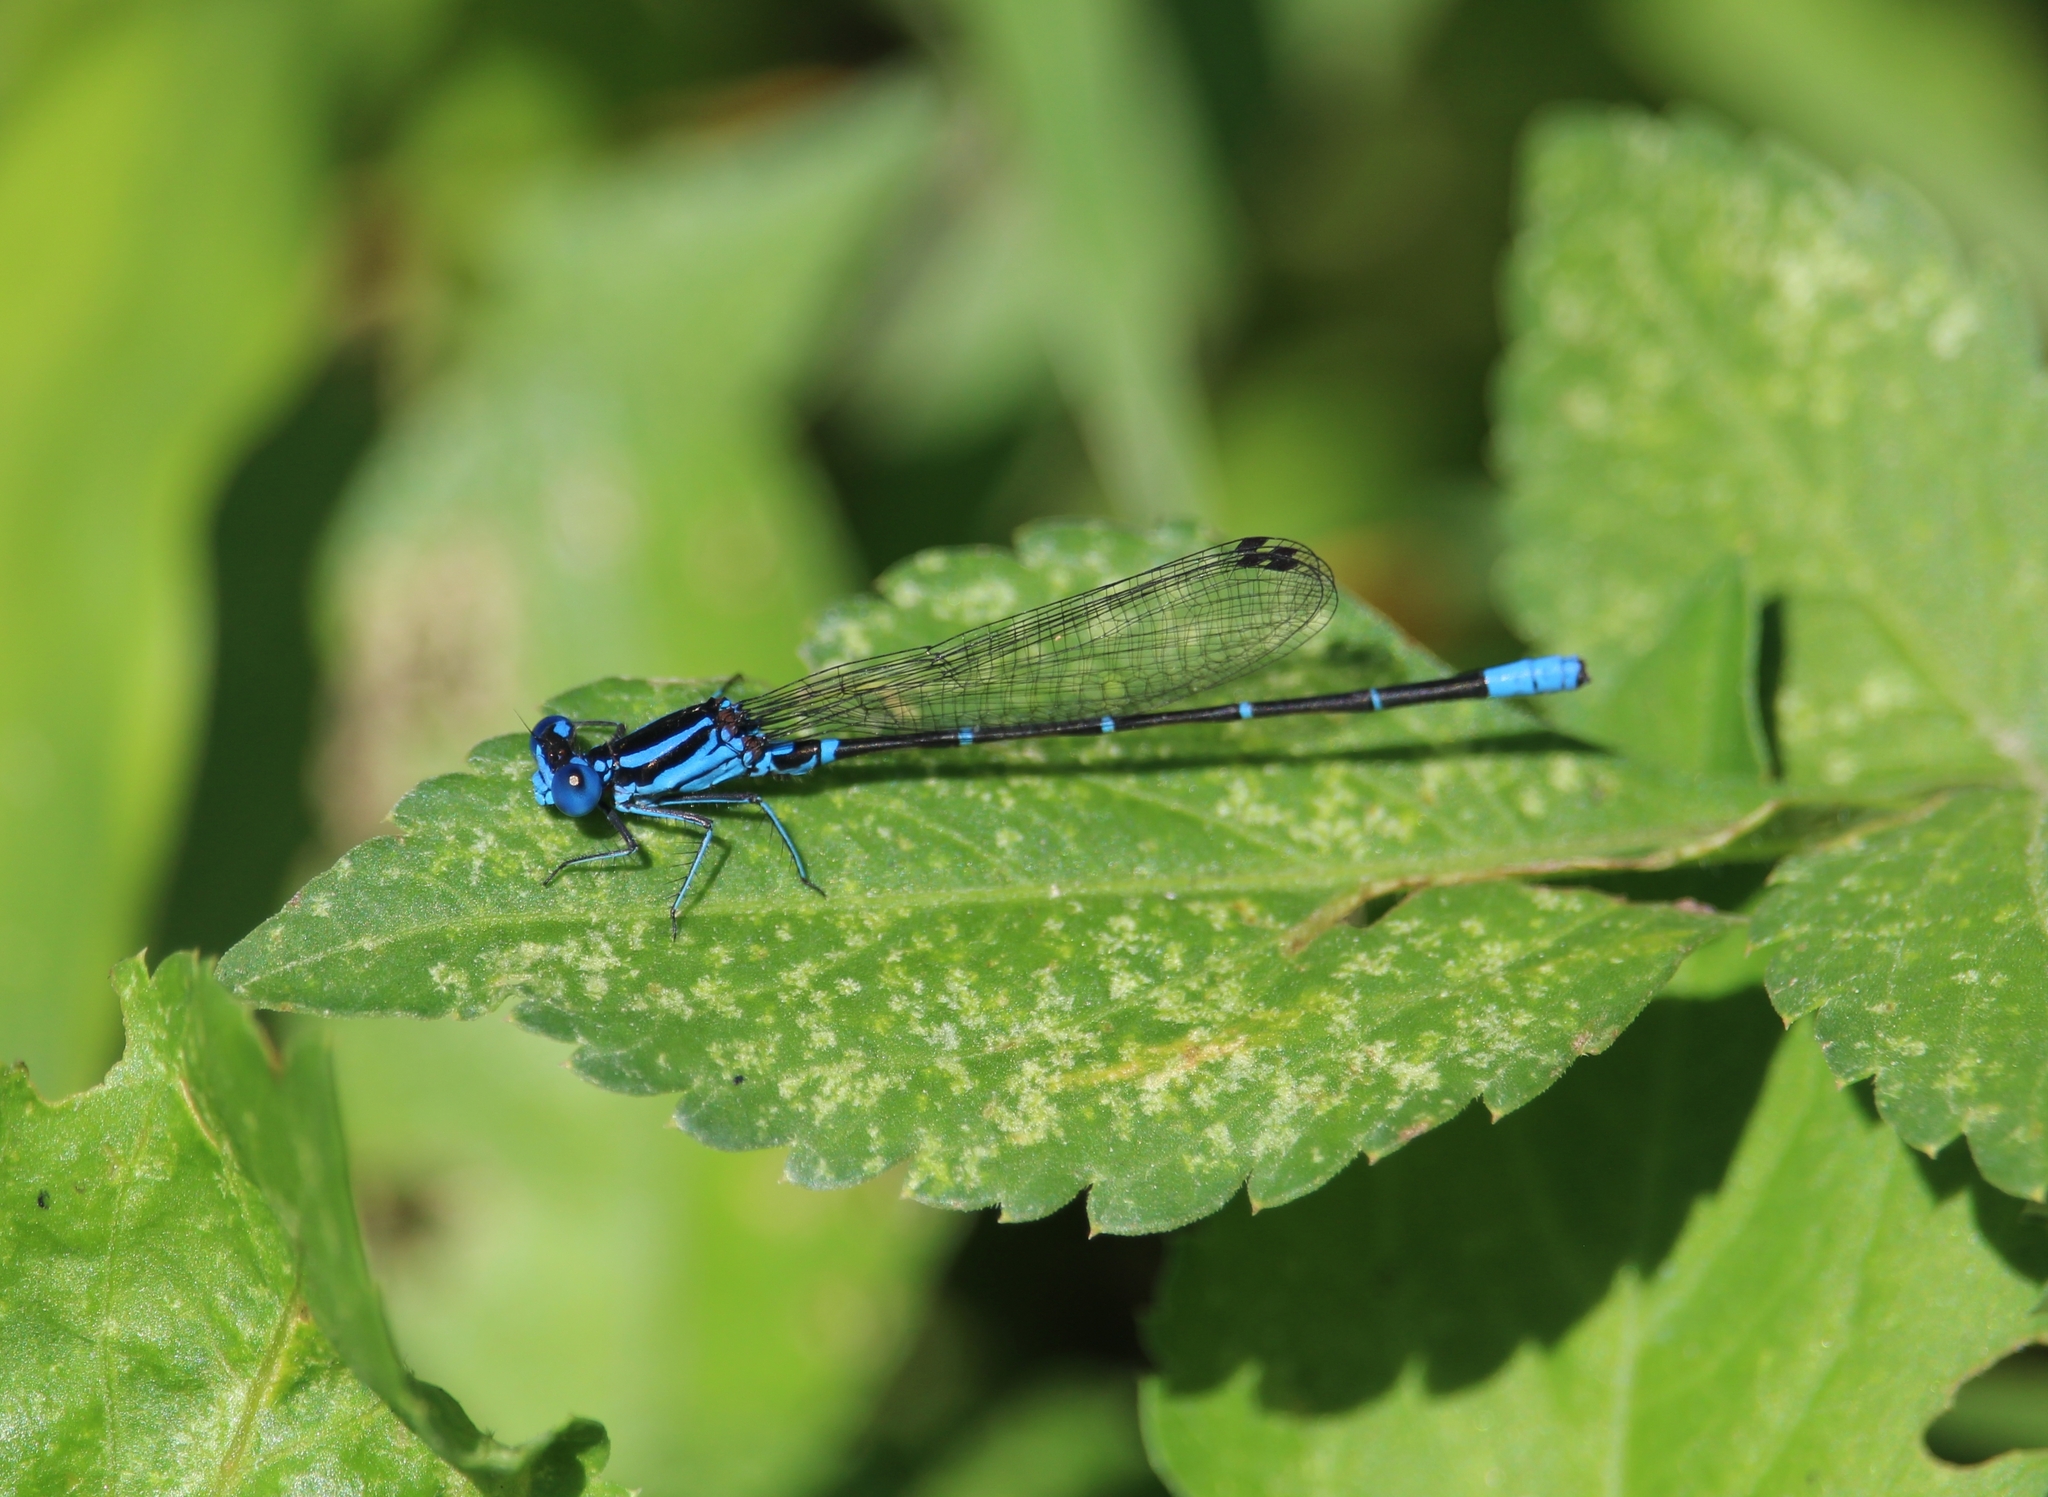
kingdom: Animalia
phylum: Arthropoda
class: Insecta
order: Odonata
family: Coenagrionidae
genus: Argia
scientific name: Argia gaumeri
